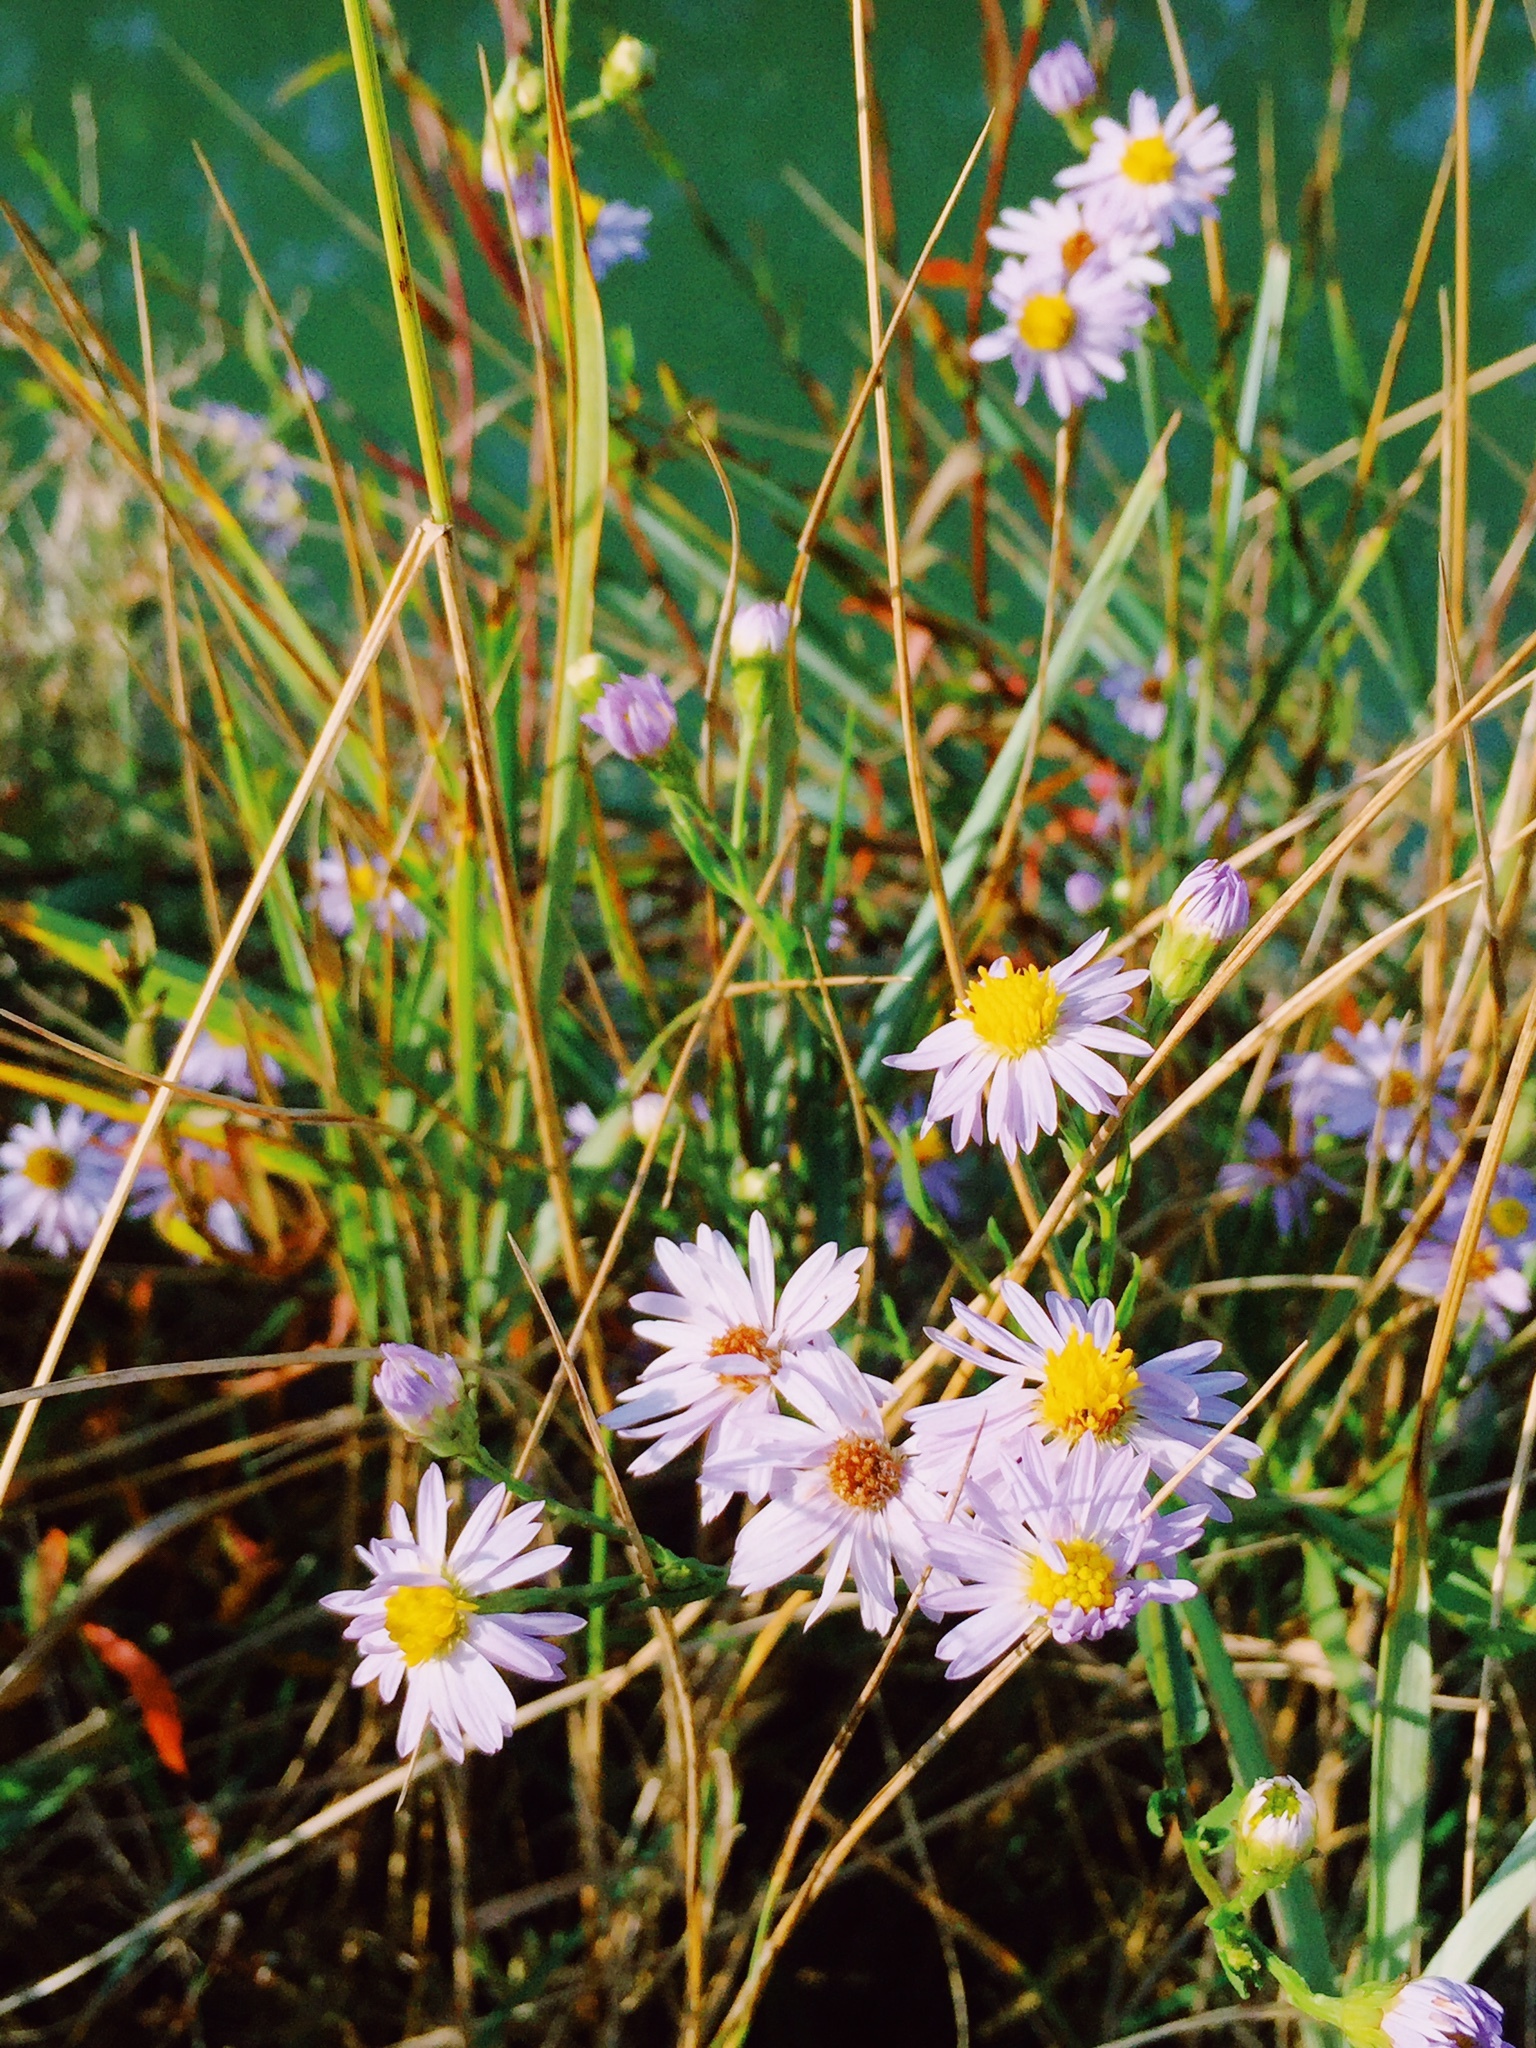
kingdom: Plantae
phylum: Tracheophyta
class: Magnoliopsida
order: Asterales
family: Asteraceae
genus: Tripolium
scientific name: Tripolium pannonicum
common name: Sea aster
